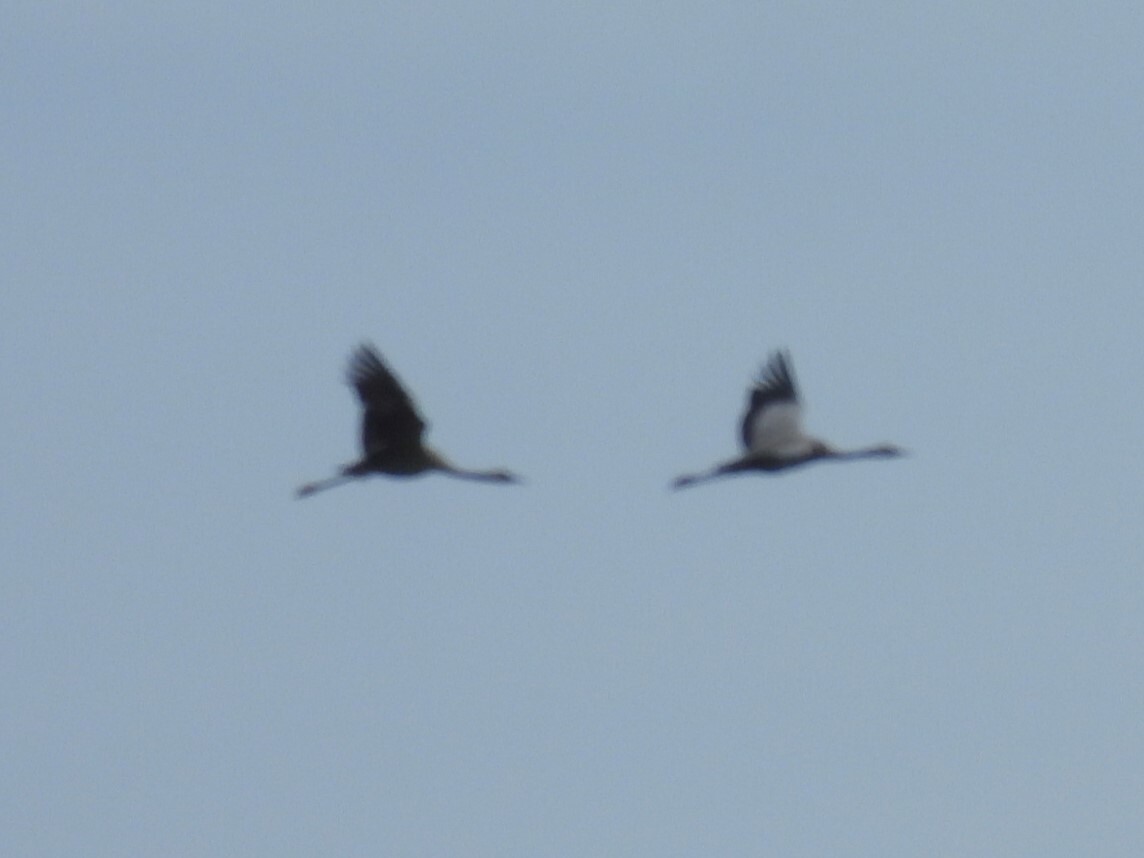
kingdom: Animalia
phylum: Chordata
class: Aves
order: Gruiformes
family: Gruidae
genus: Grus
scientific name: Grus grus
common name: Common crane
